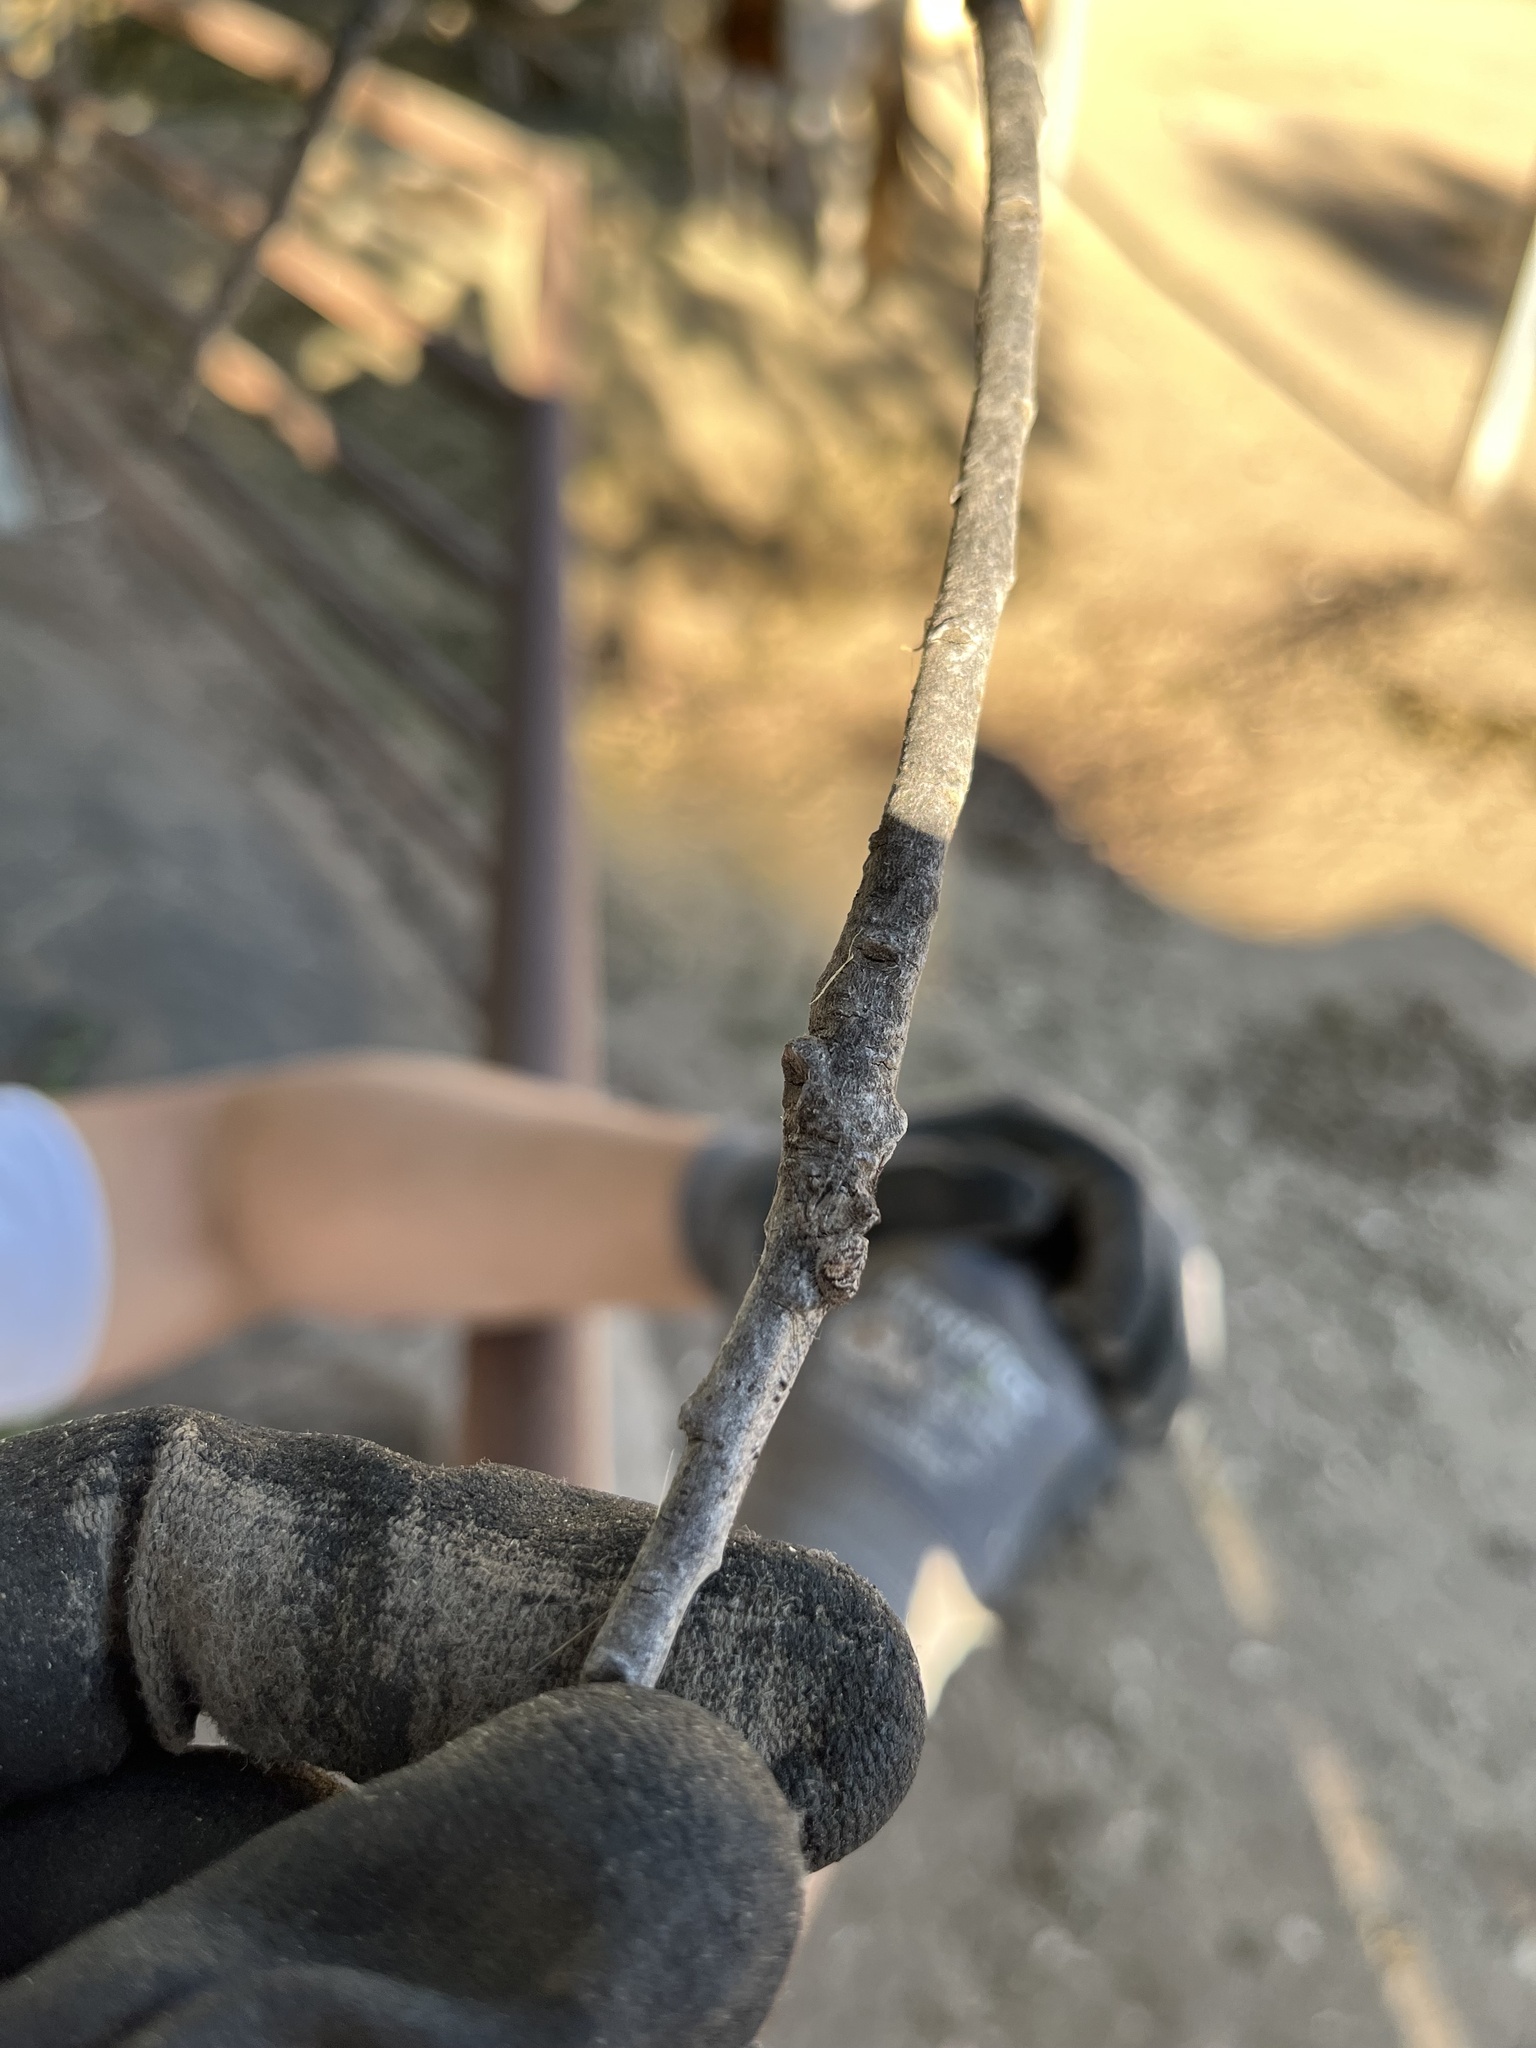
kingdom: Animalia
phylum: Arthropoda
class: Arachnida
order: Araneae
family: Oxyopidae
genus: Hamataliwa
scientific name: Hamataliwa grisea
